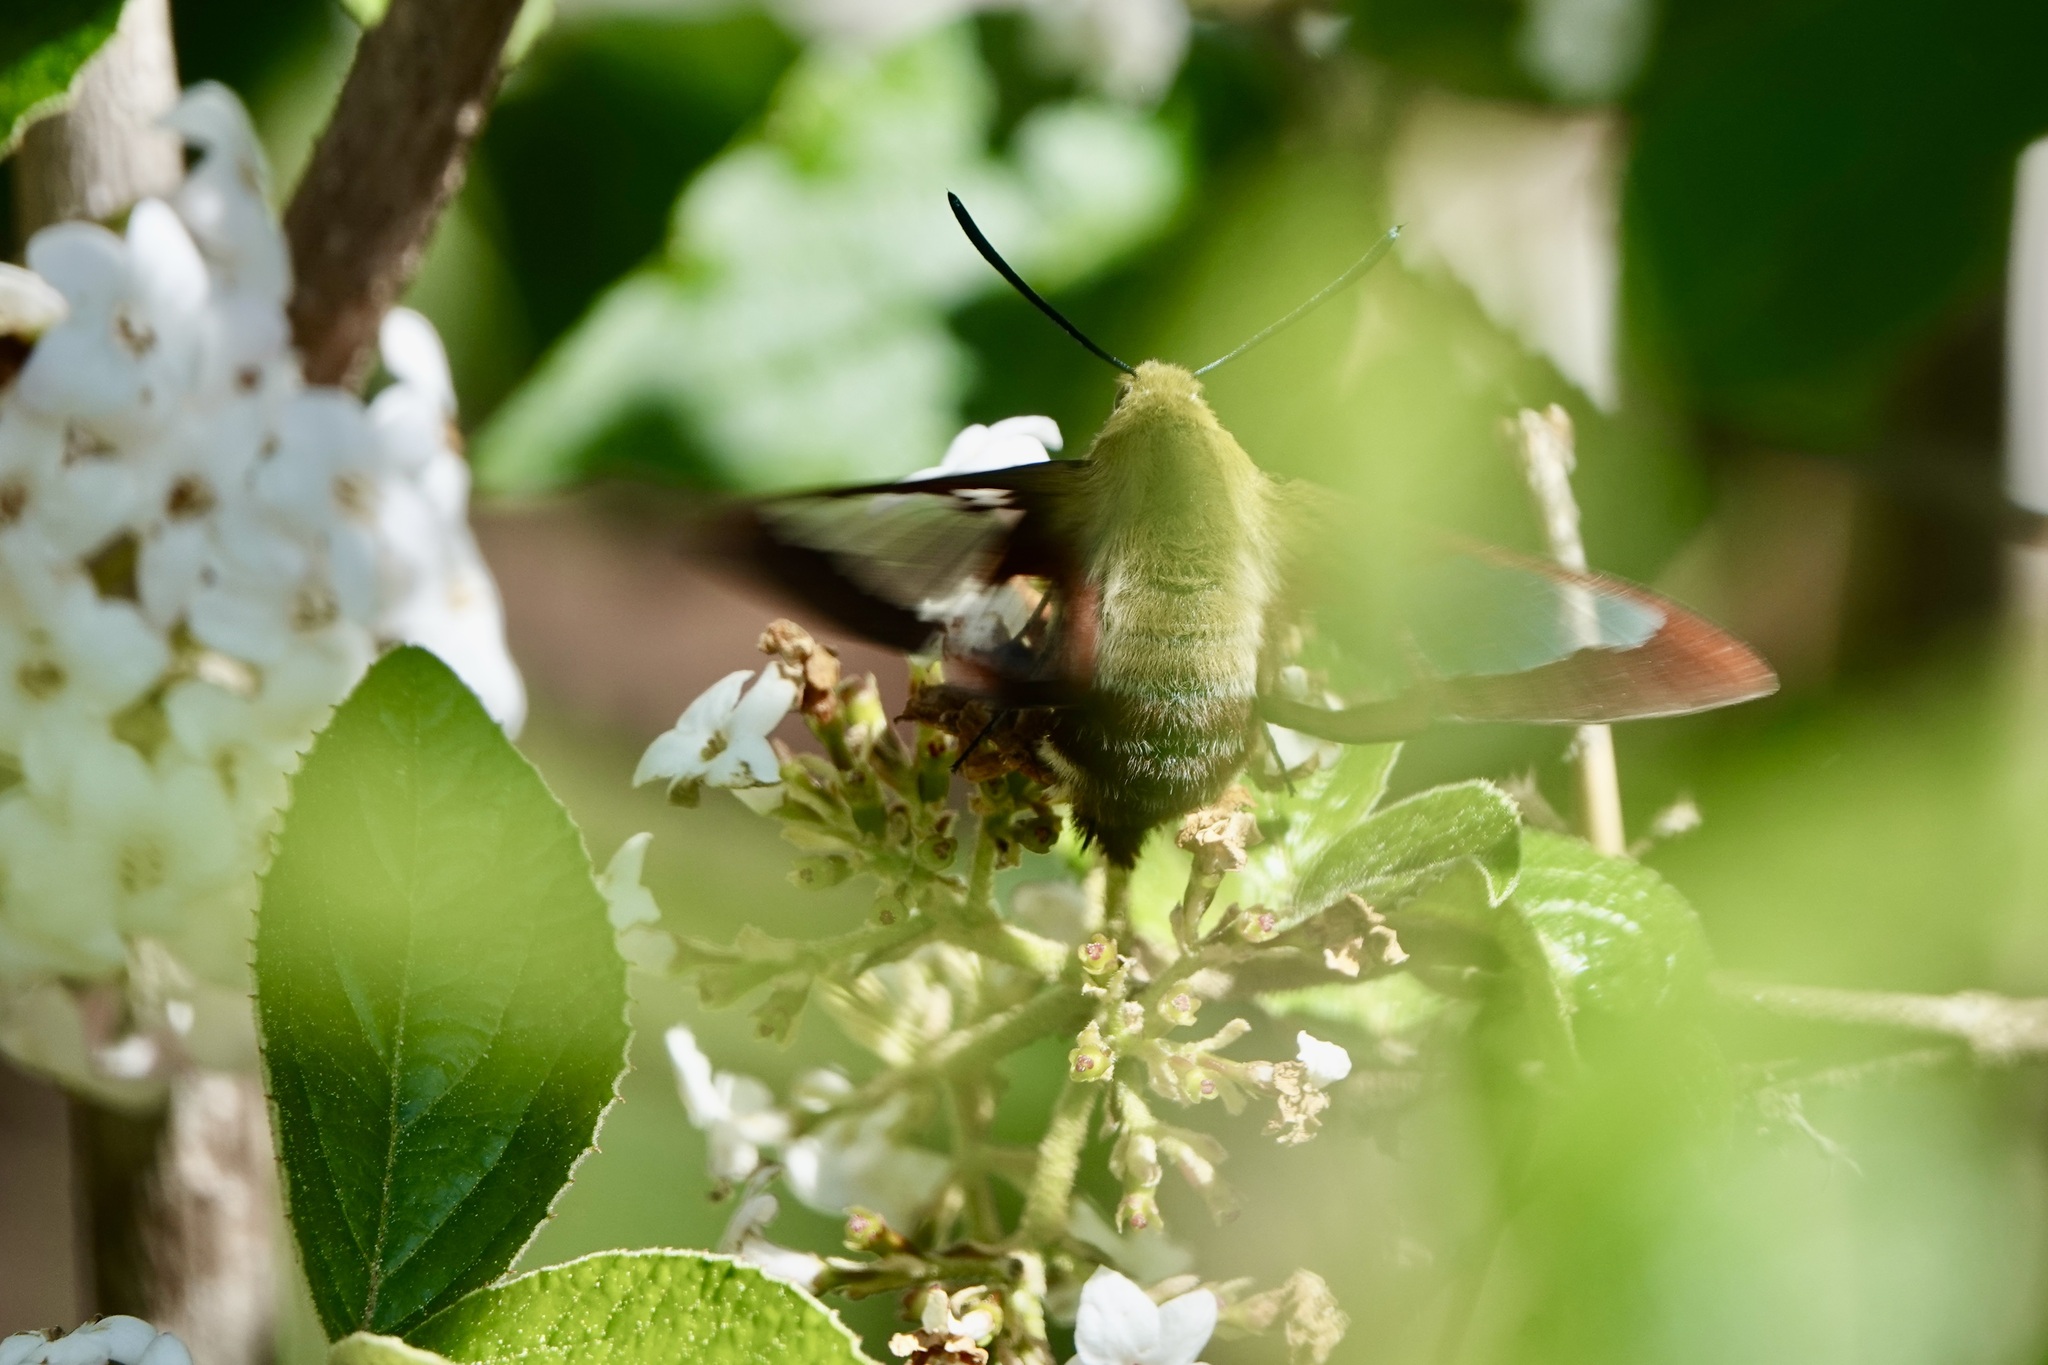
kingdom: Animalia
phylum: Arthropoda
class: Insecta
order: Lepidoptera
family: Sphingidae
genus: Hemaris
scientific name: Hemaris thysbe
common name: Common clear-wing
